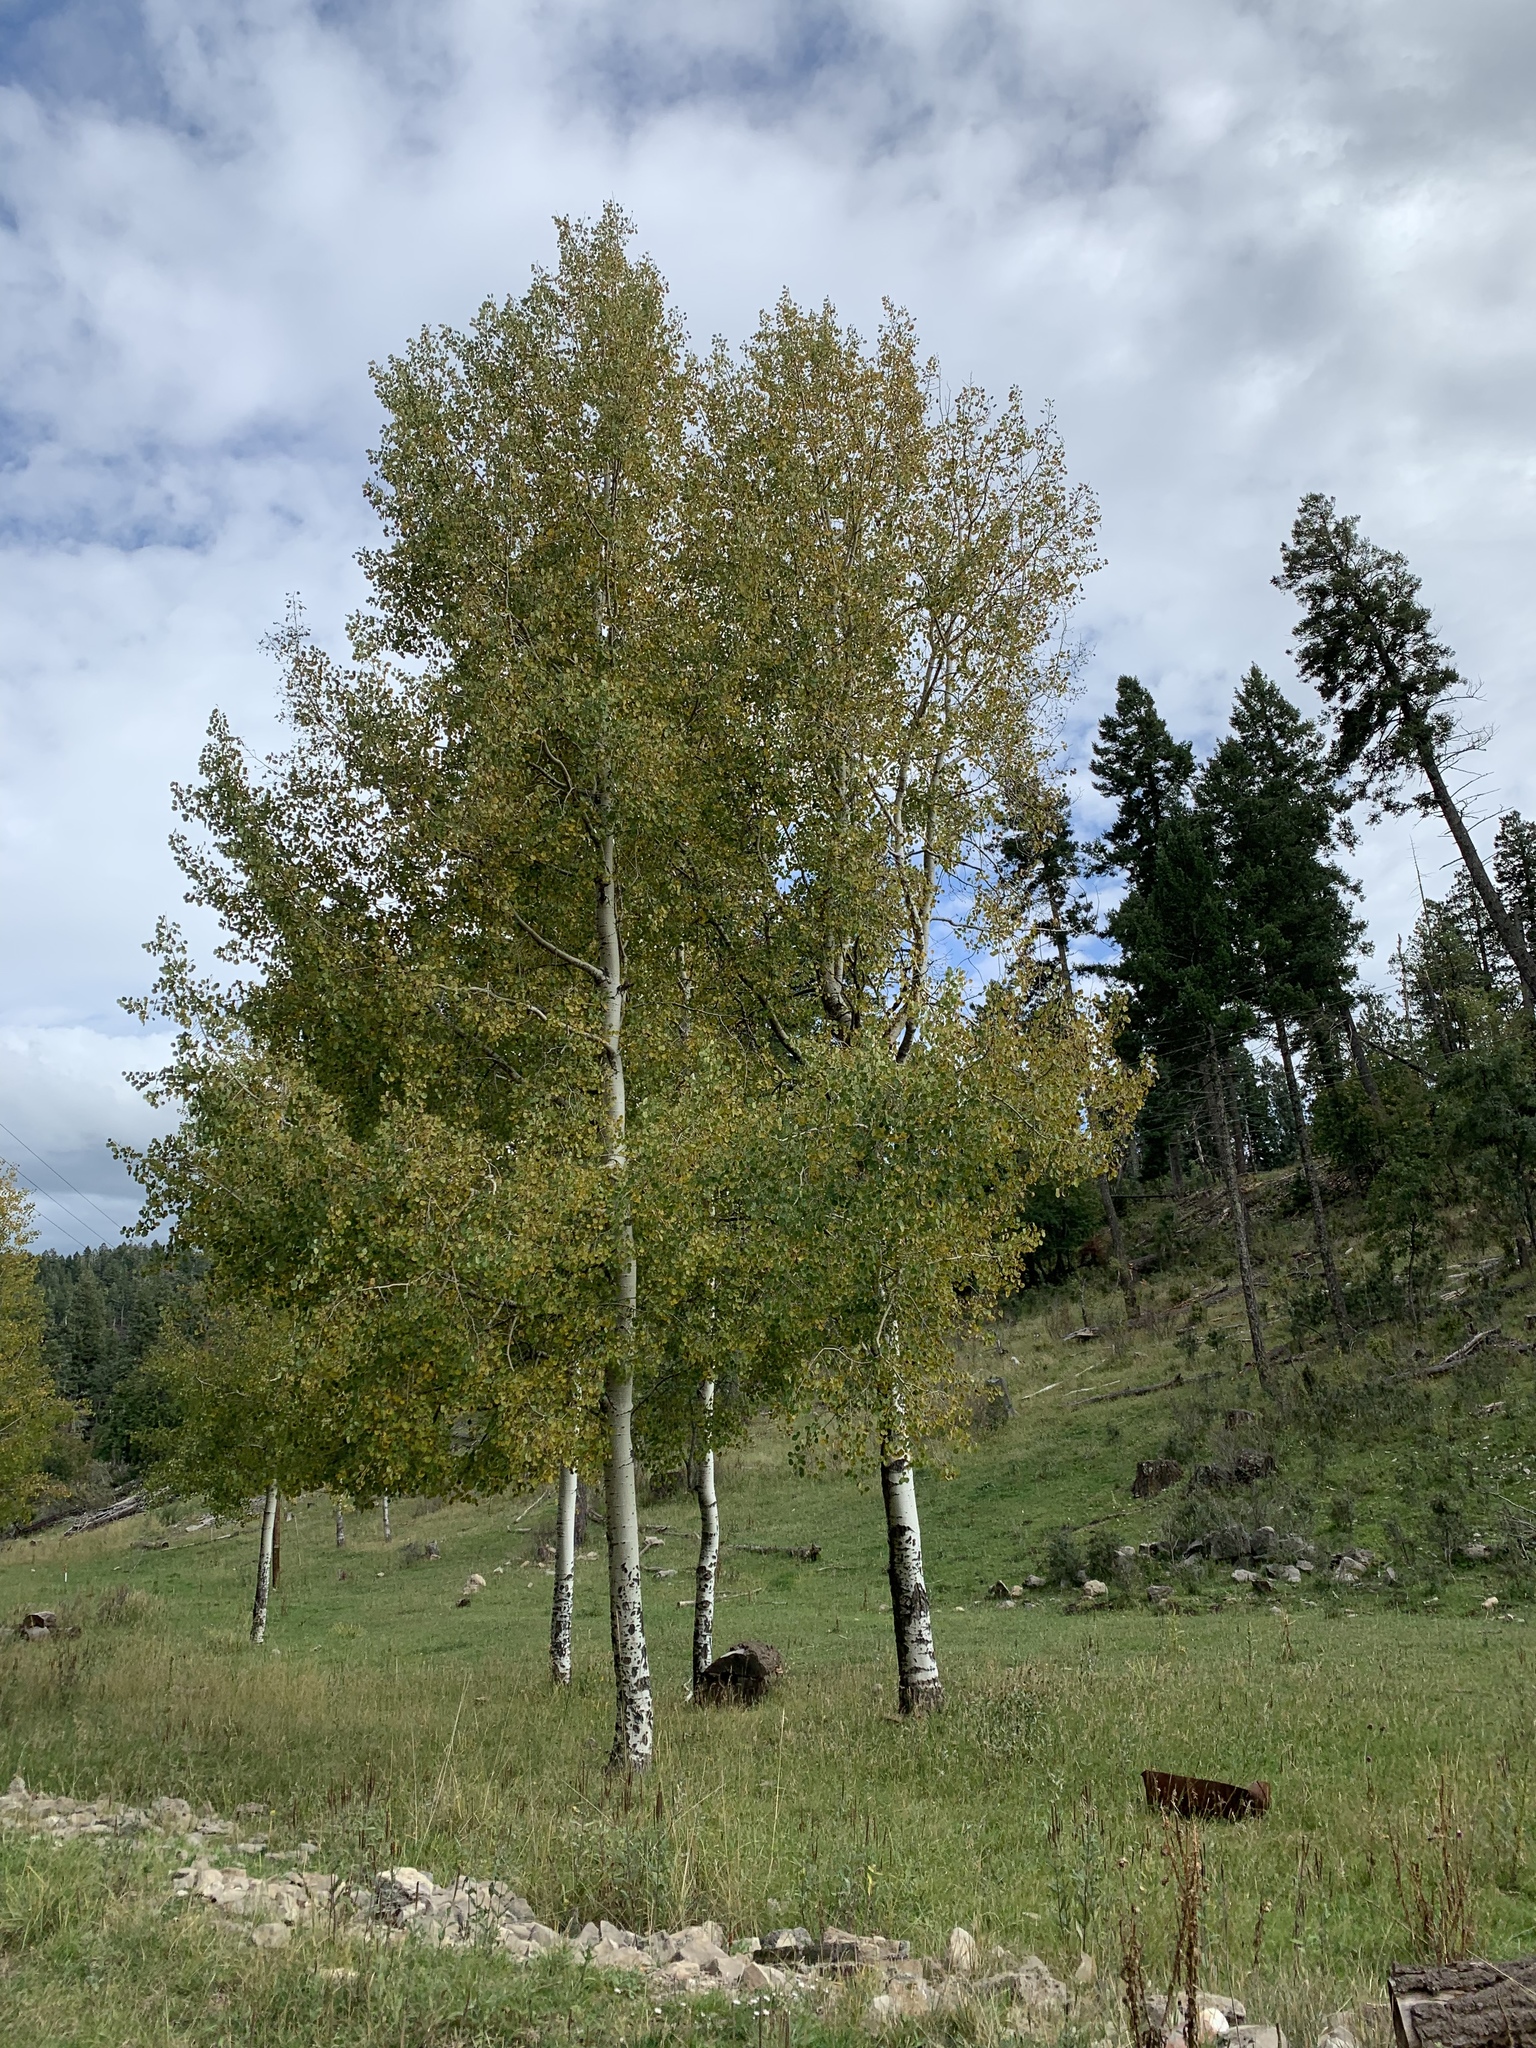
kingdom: Plantae
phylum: Tracheophyta
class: Magnoliopsida
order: Malpighiales
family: Salicaceae
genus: Populus
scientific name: Populus tremuloides
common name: Quaking aspen
